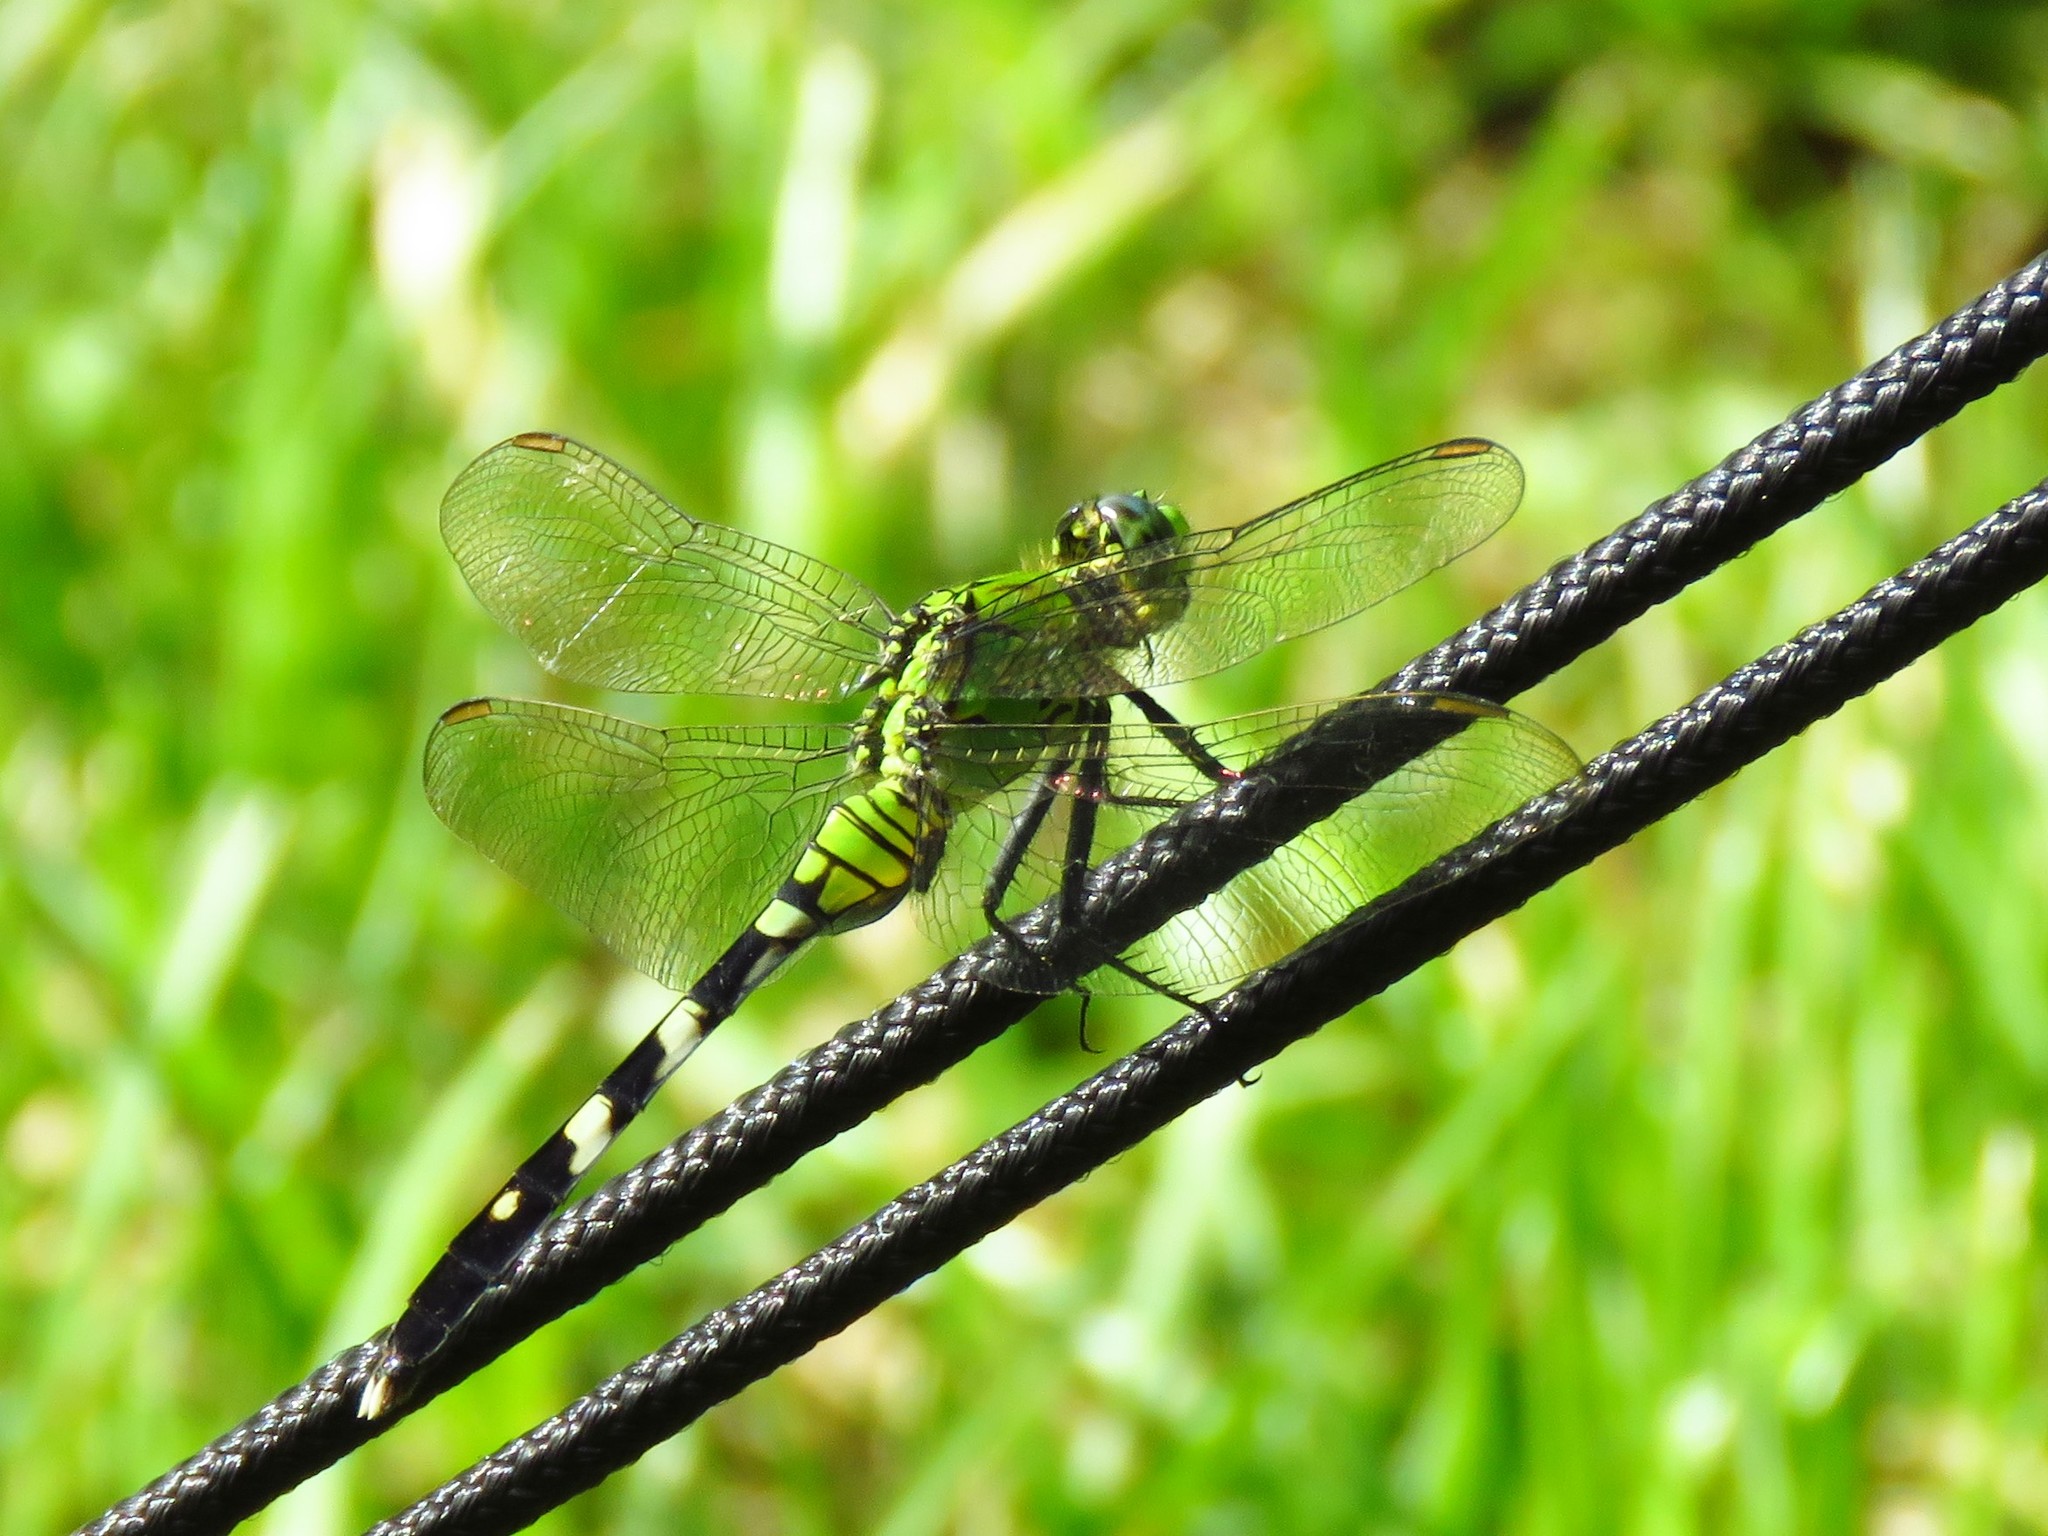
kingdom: Animalia
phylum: Arthropoda
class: Insecta
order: Odonata
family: Libellulidae
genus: Erythemis
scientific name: Erythemis simplicicollis
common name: Eastern pondhawk
